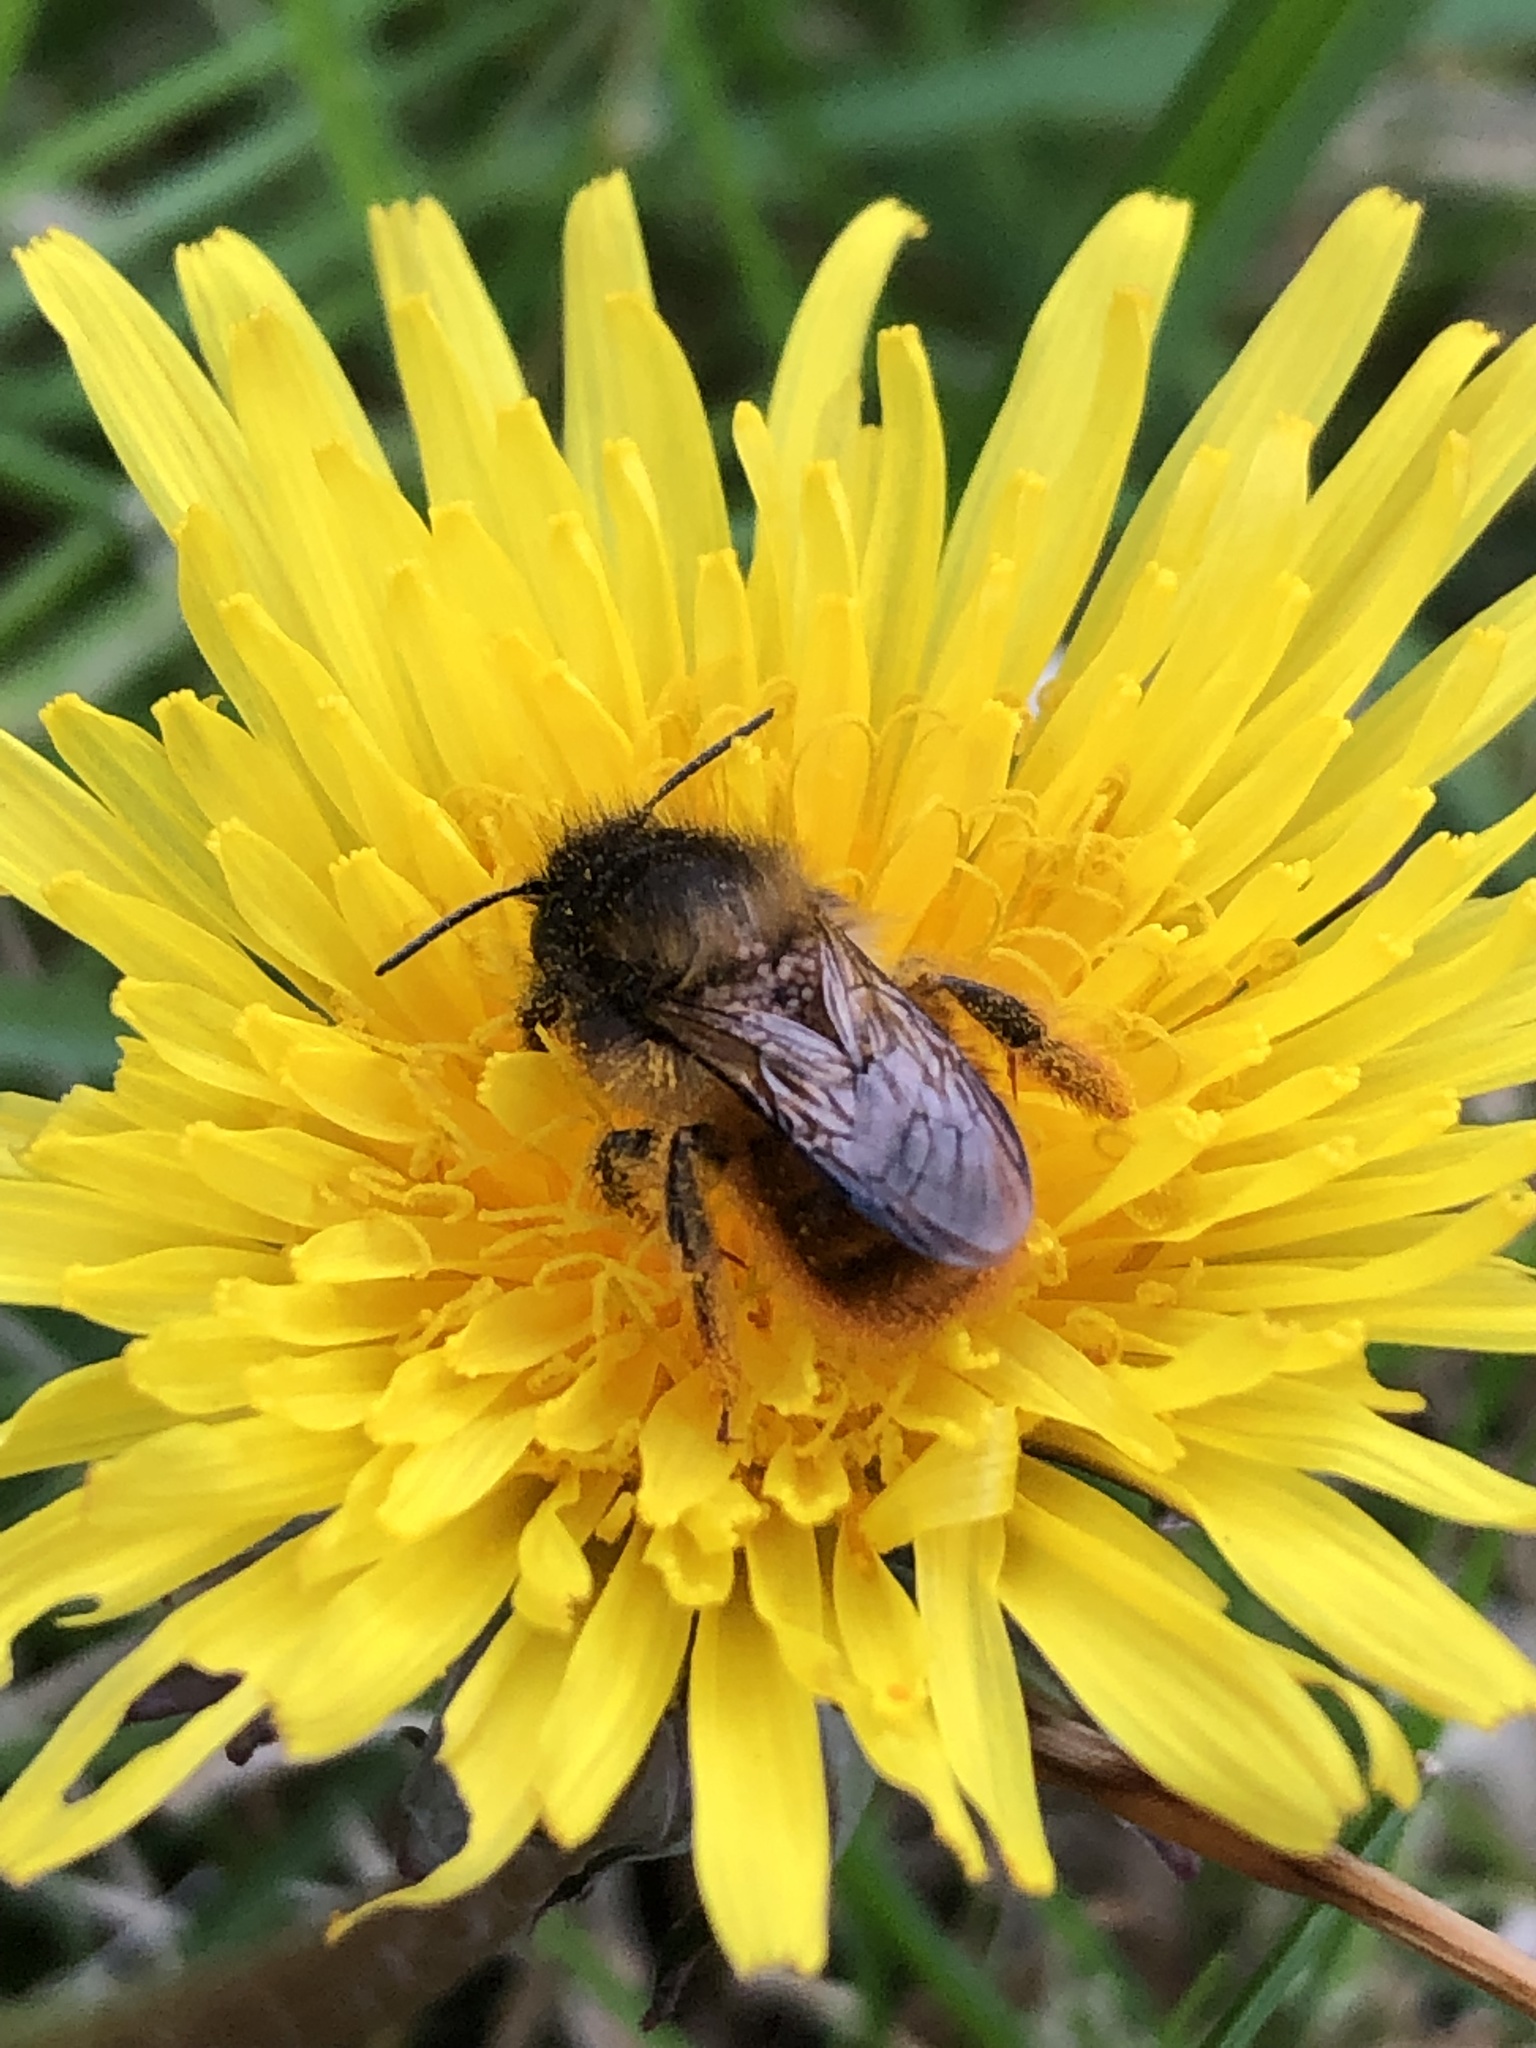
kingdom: Animalia
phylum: Arthropoda
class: Insecta
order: Hymenoptera
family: Megachilidae
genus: Osmia
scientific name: Osmia bicornis
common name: Red mason bee
